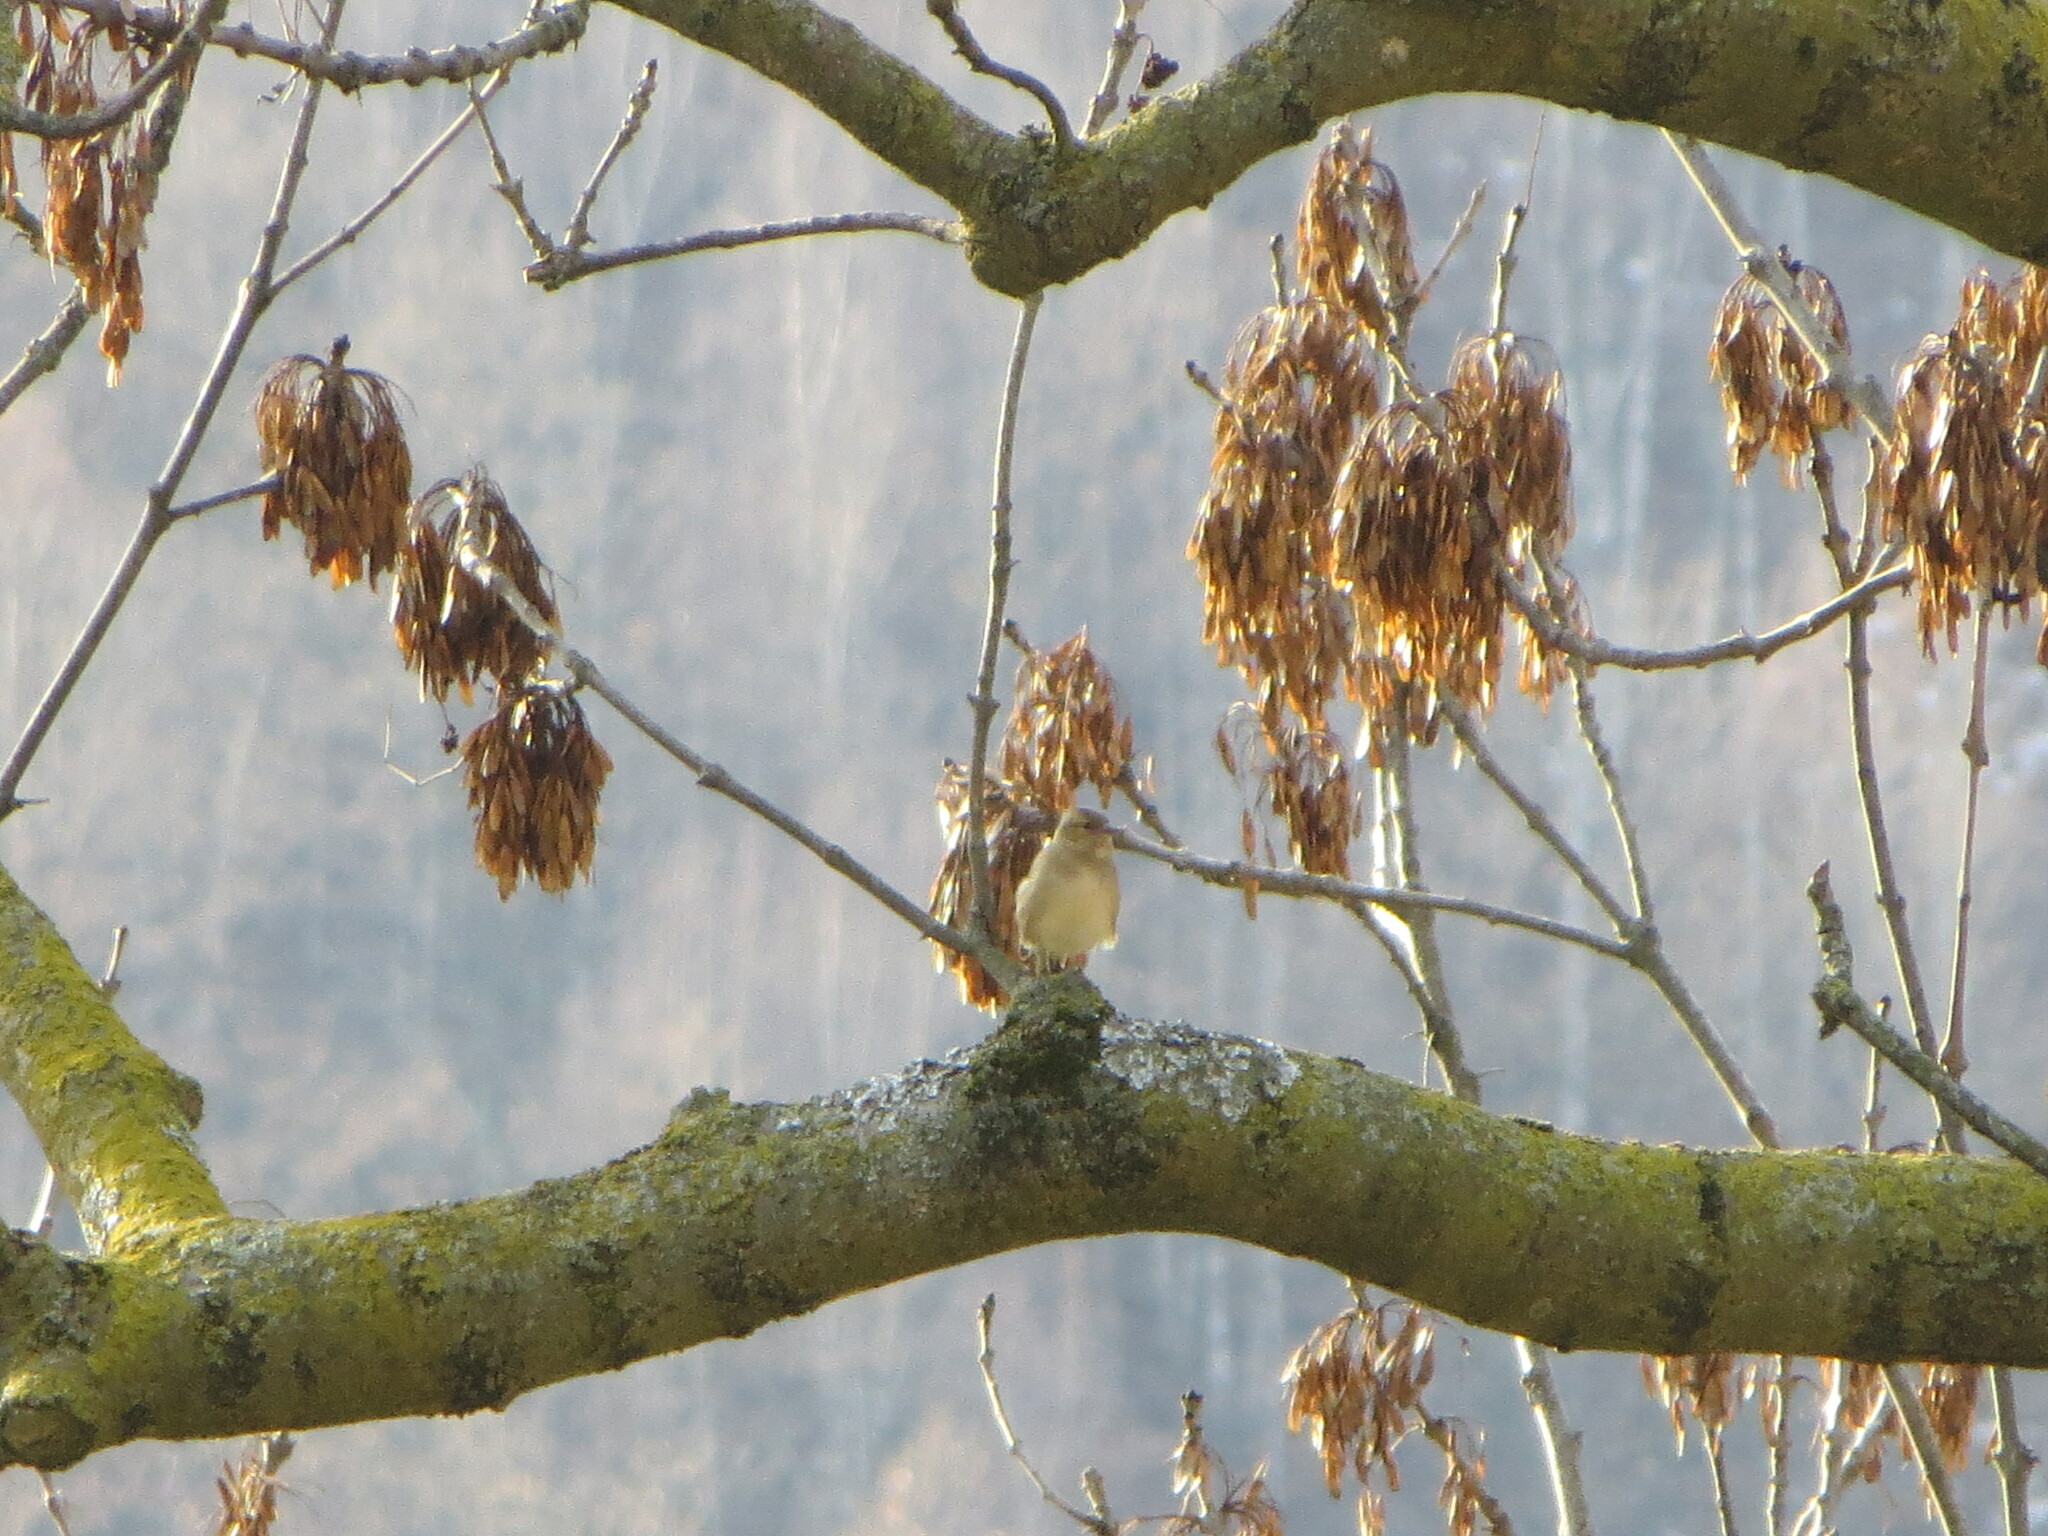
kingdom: Animalia
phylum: Chordata
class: Aves
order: Passeriformes
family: Fringillidae
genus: Fringilla
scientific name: Fringilla coelebs
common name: Common chaffinch
